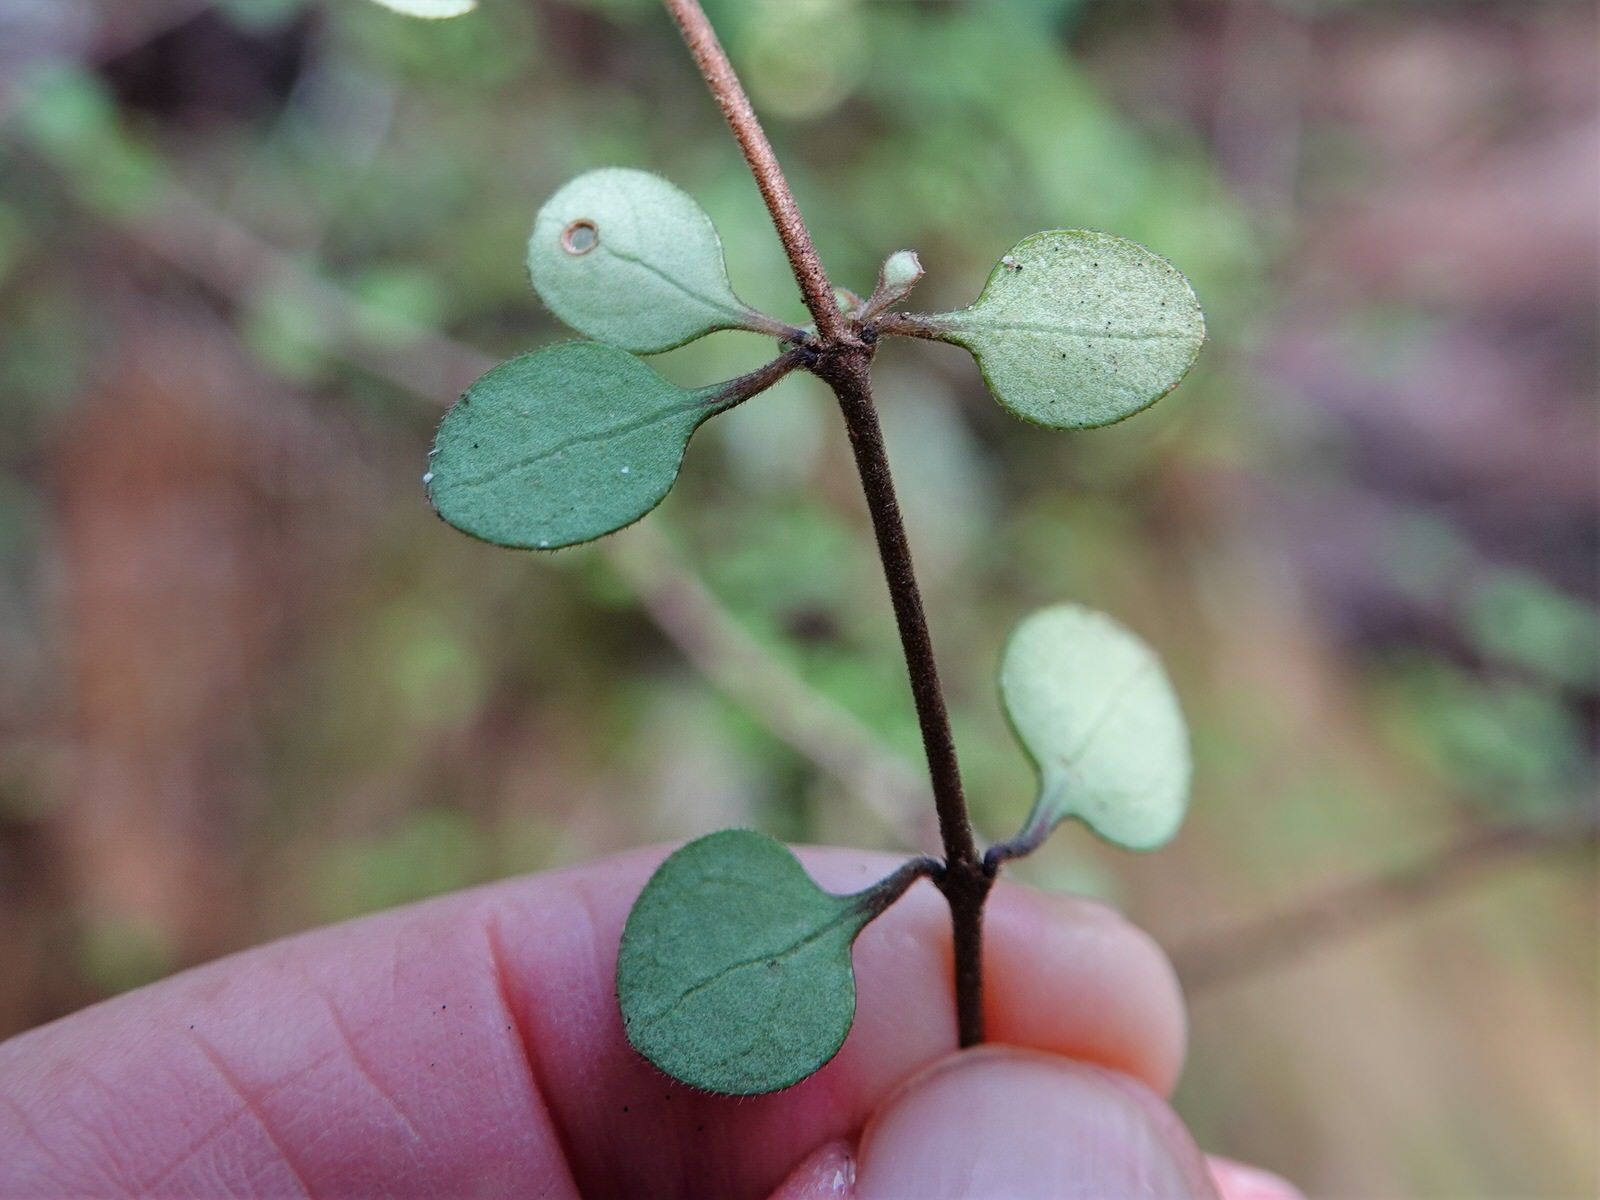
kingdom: Plantae
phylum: Tracheophyta
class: Magnoliopsida
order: Gentianales
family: Rubiaceae
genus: Coprosma
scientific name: Coprosma crassifolia
